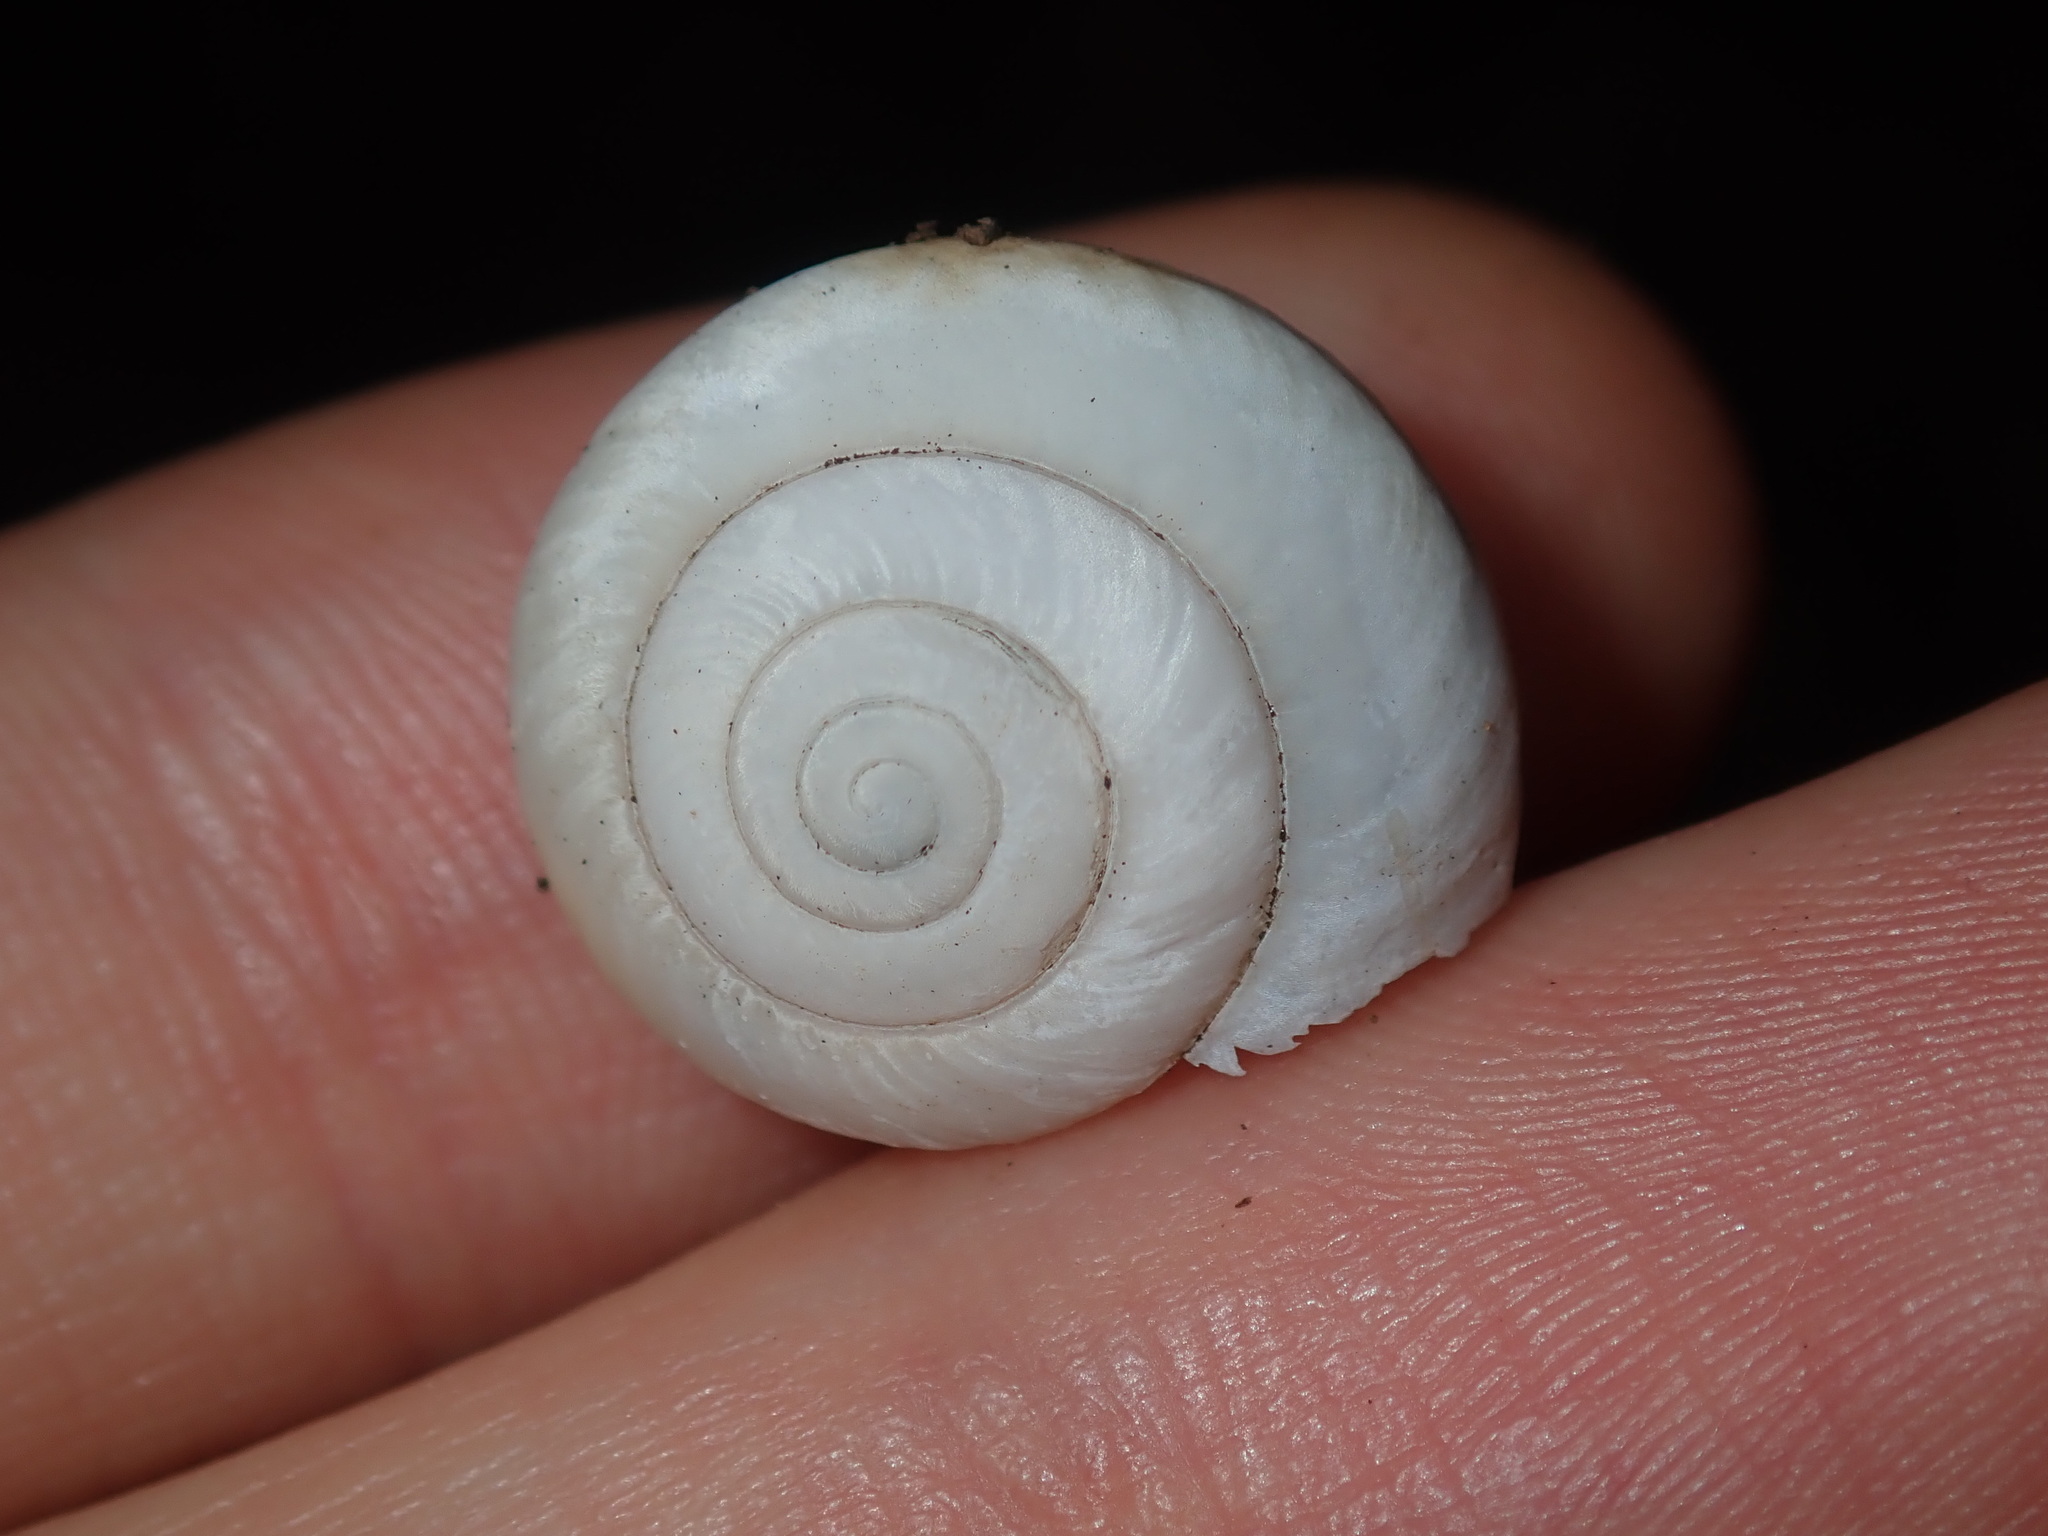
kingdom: Animalia
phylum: Mollusca
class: Gastropoda
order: Stylommatophora
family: Camaenidae
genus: Sauroconcha
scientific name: Sauroconcha sheai
